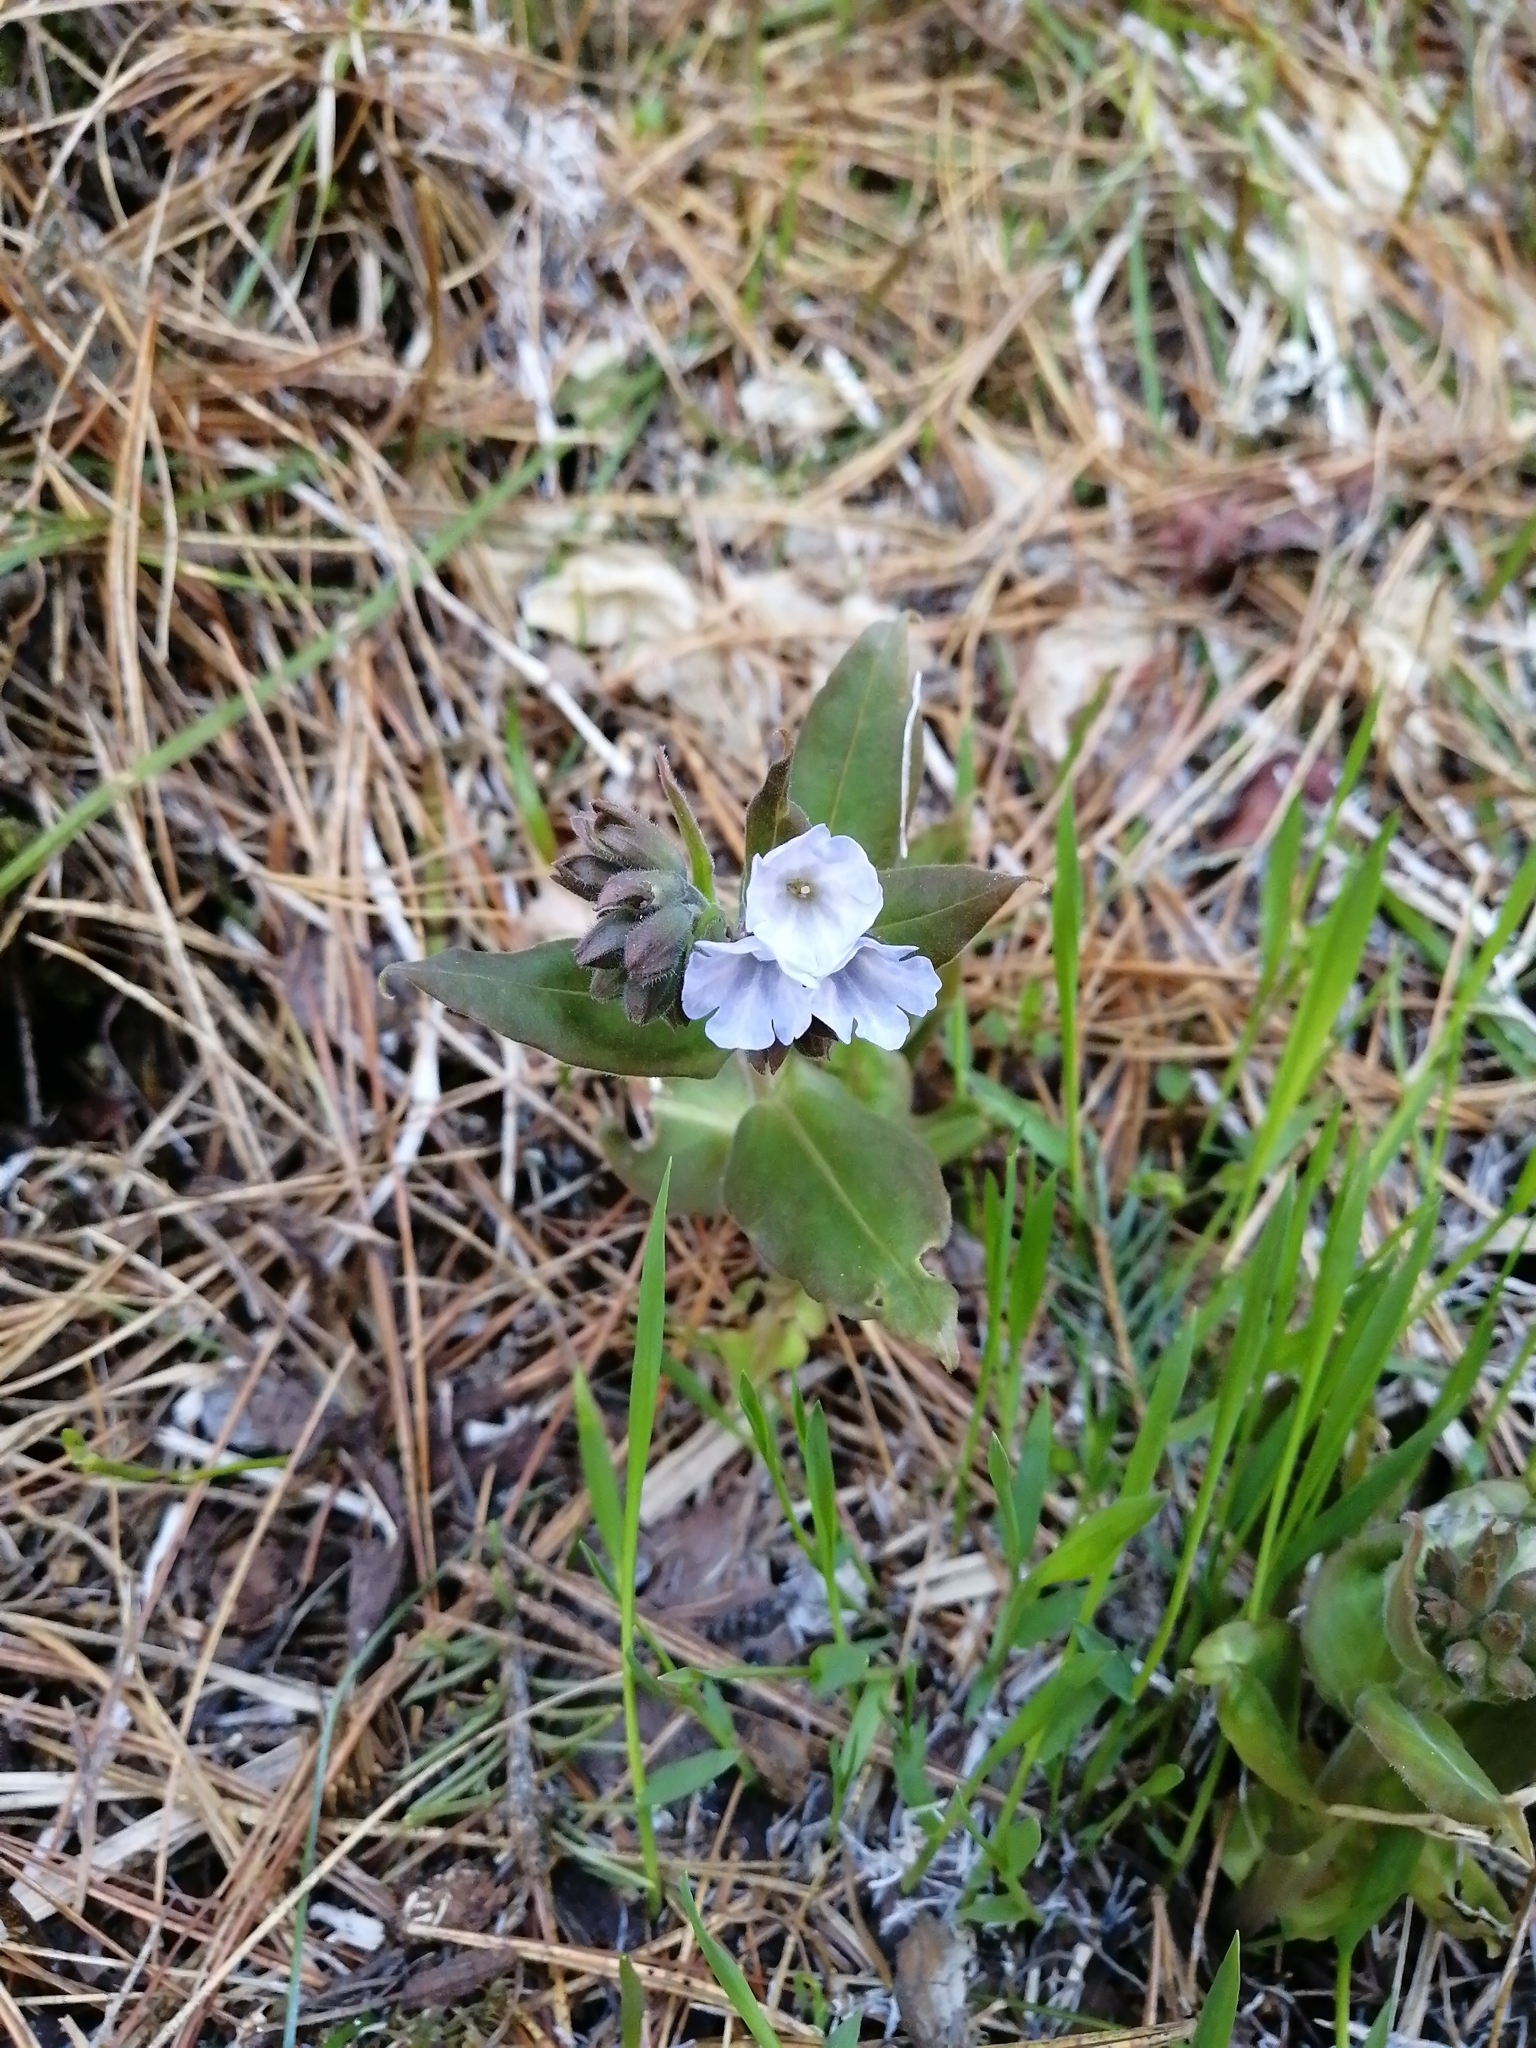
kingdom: Plantae
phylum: Tracheophyta
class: Magnoliopsida
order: Boraginales
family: Boraginaceae
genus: Pulmonaria
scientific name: Pulmonaria mollis
